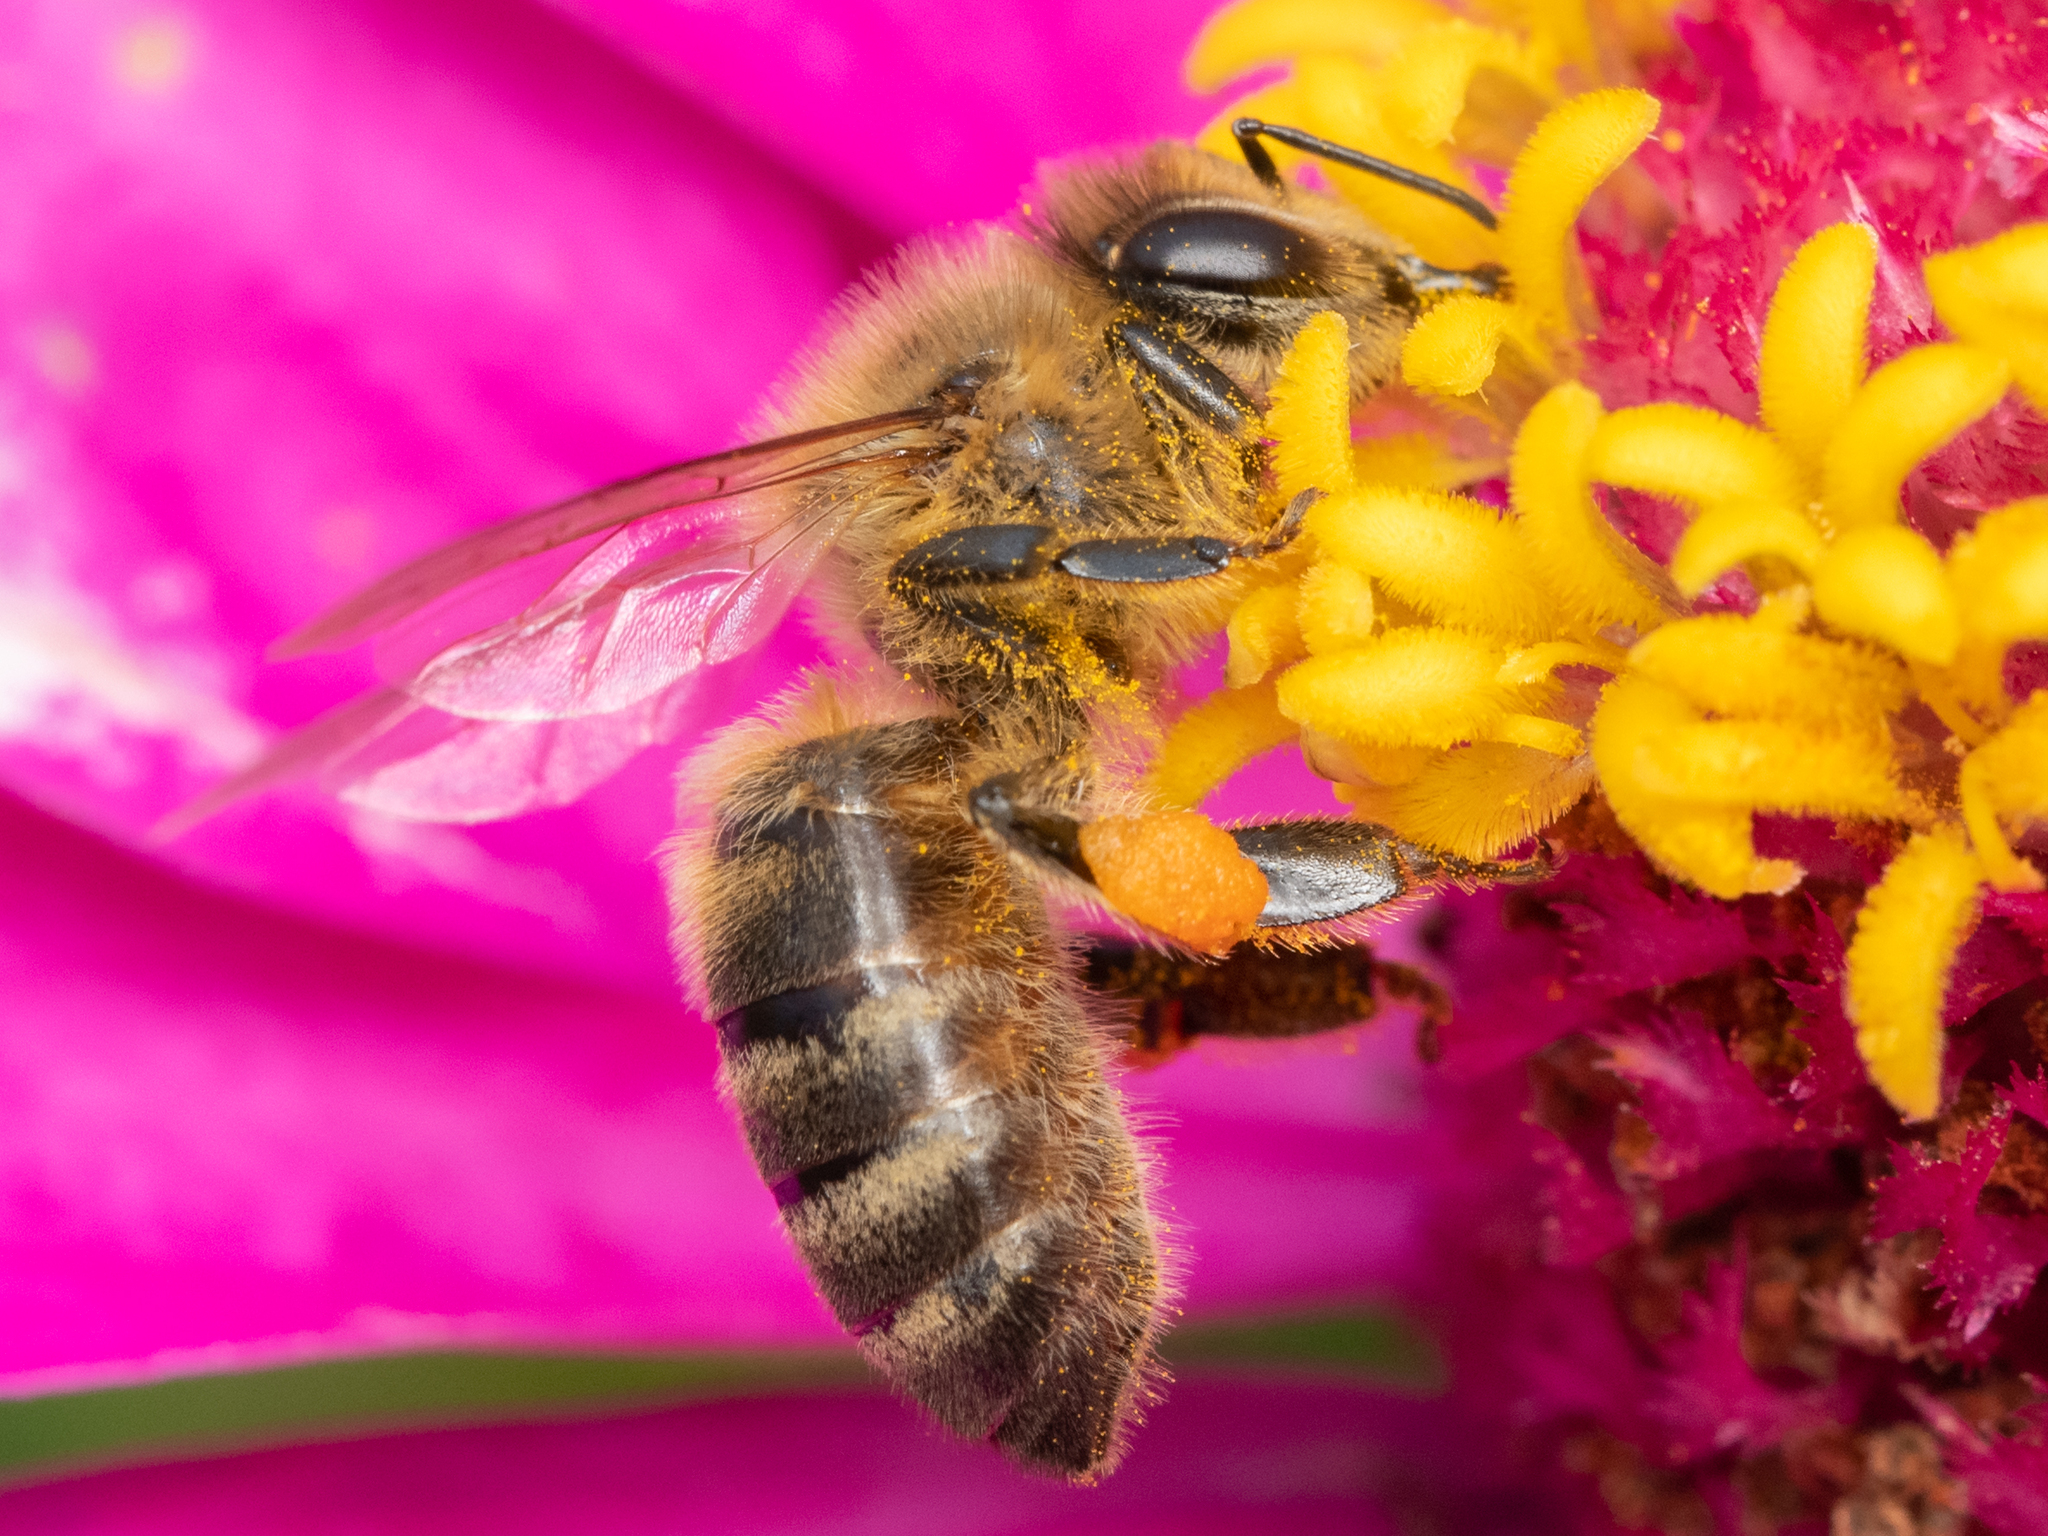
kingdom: Animalia
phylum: Arthropoda
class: Insecta
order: Hymenoptera
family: Apidae
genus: Apis
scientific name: Apis mellifera
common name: Honey bee
